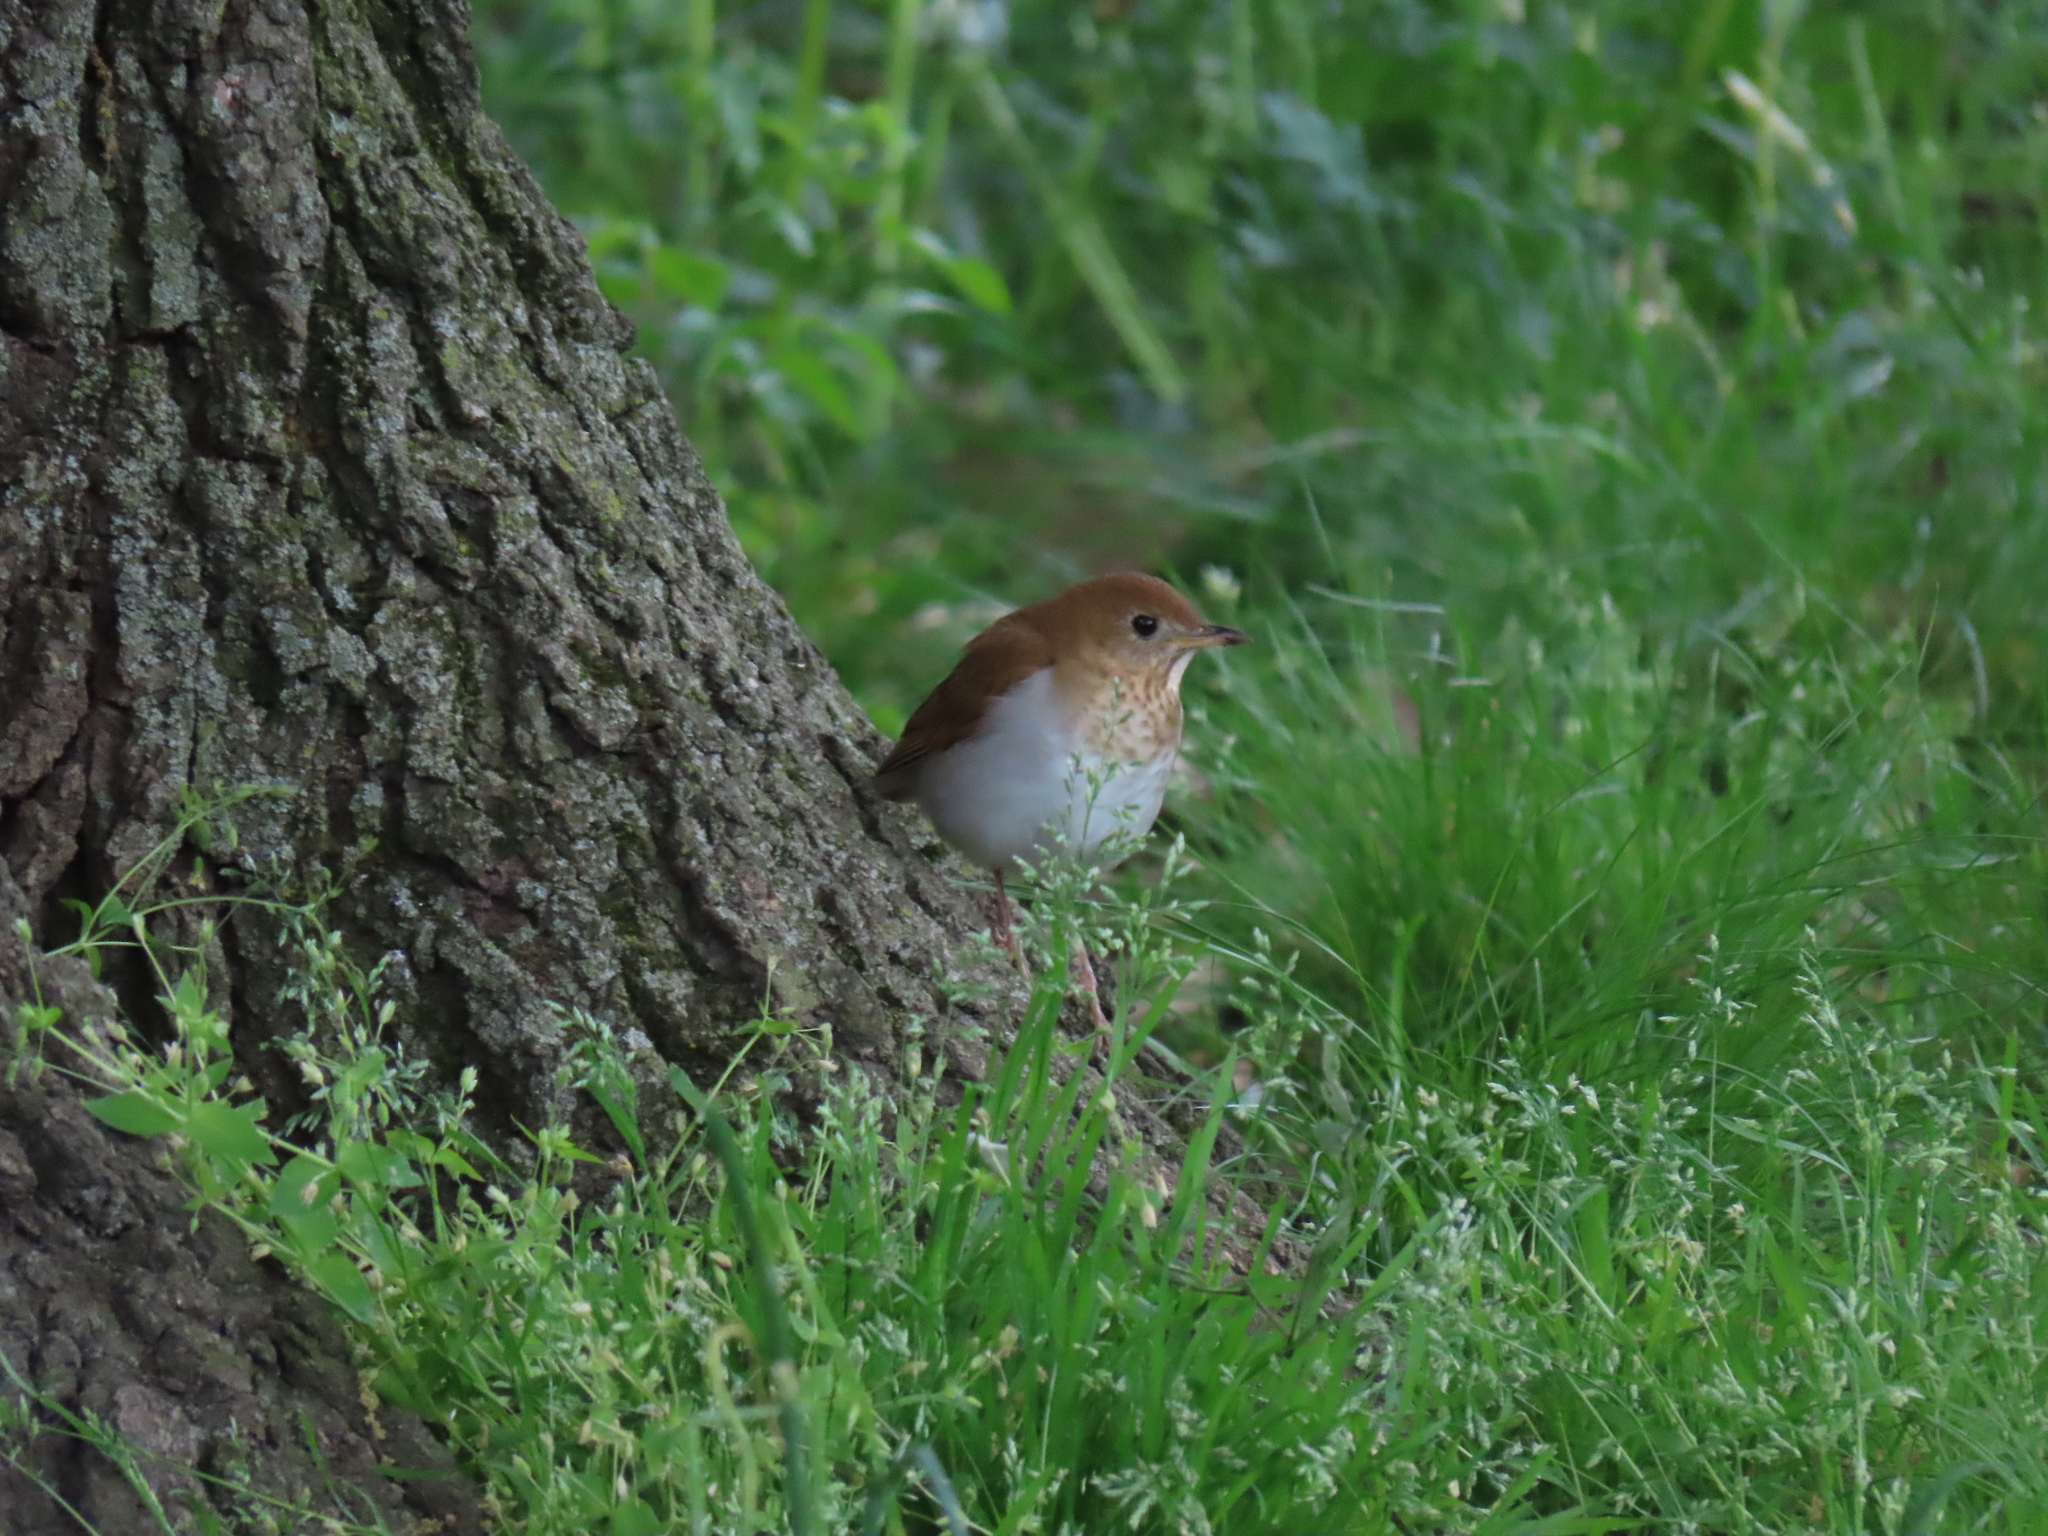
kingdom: Animalia
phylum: Chordata
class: Aves
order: Passeriformes
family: Turdidae
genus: Catharus
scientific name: Catharus fuscescens
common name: Veery
